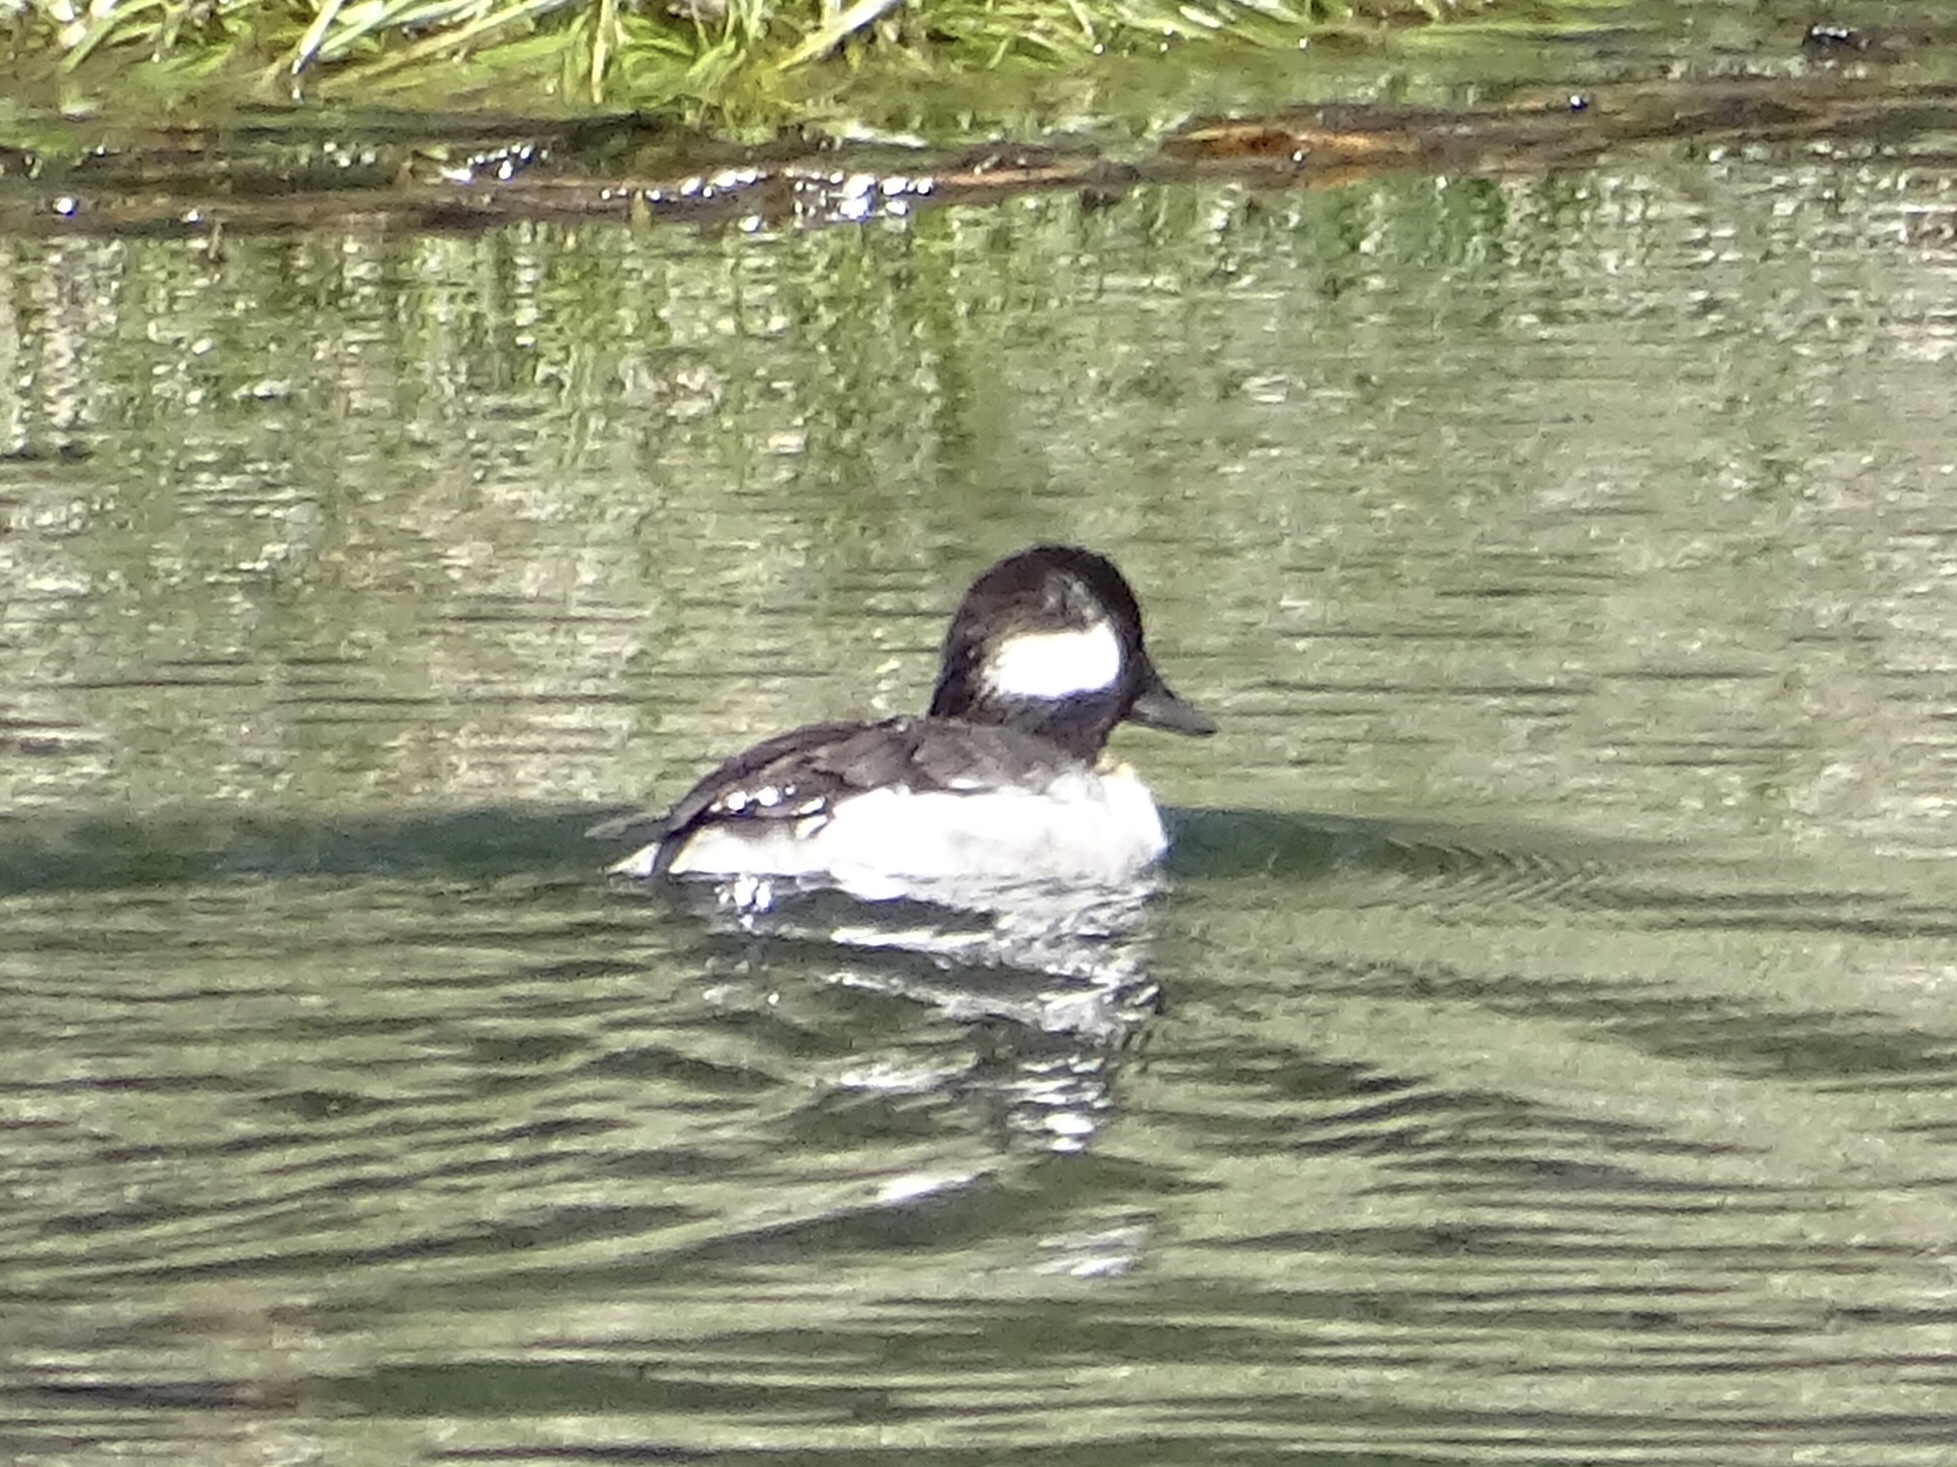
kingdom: Animalia
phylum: Chordata
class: Aves
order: Anseriformes
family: Anatidae
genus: Bucephala
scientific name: Bucephala albeola
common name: Bufflehead
